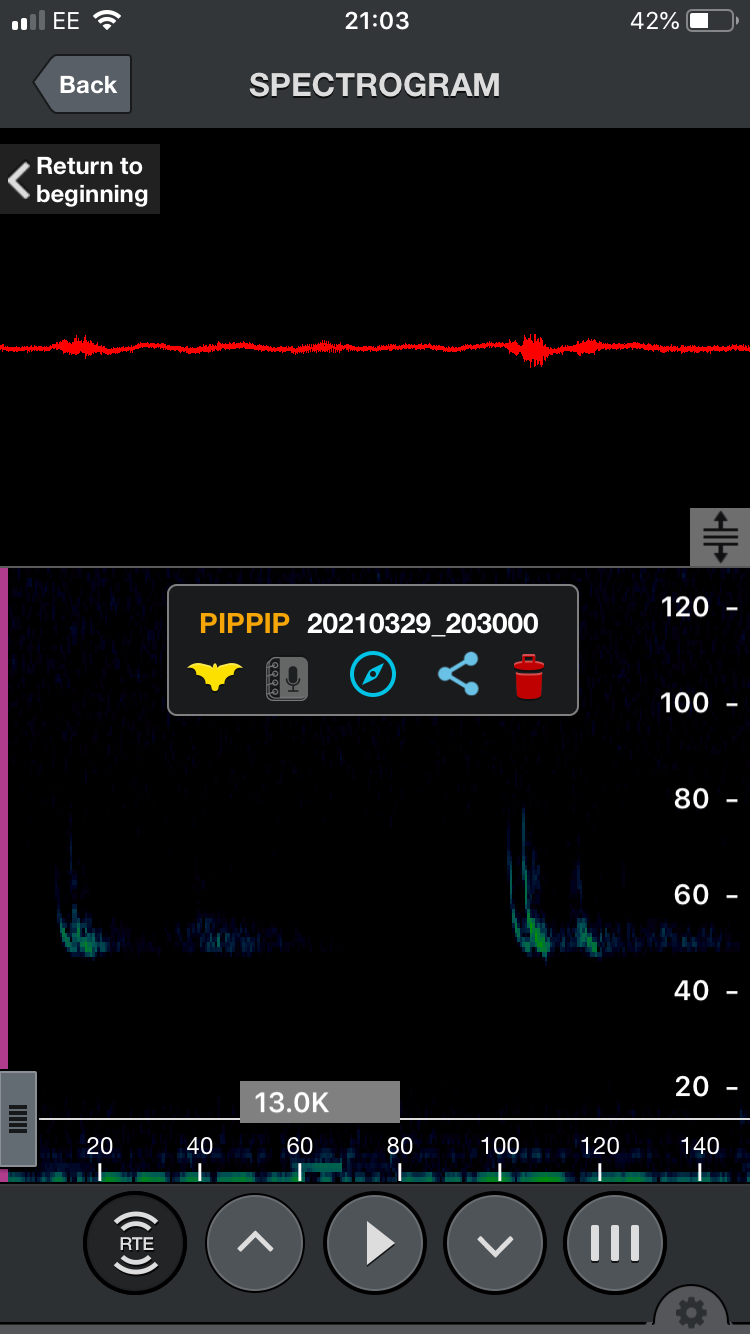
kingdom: Animalia
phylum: Chordata
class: Mammalia
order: Chiroptera
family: Vespertilionidae
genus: Pipistrellus
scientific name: Pipistrellus pipistrellus
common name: Common pipistrelle
